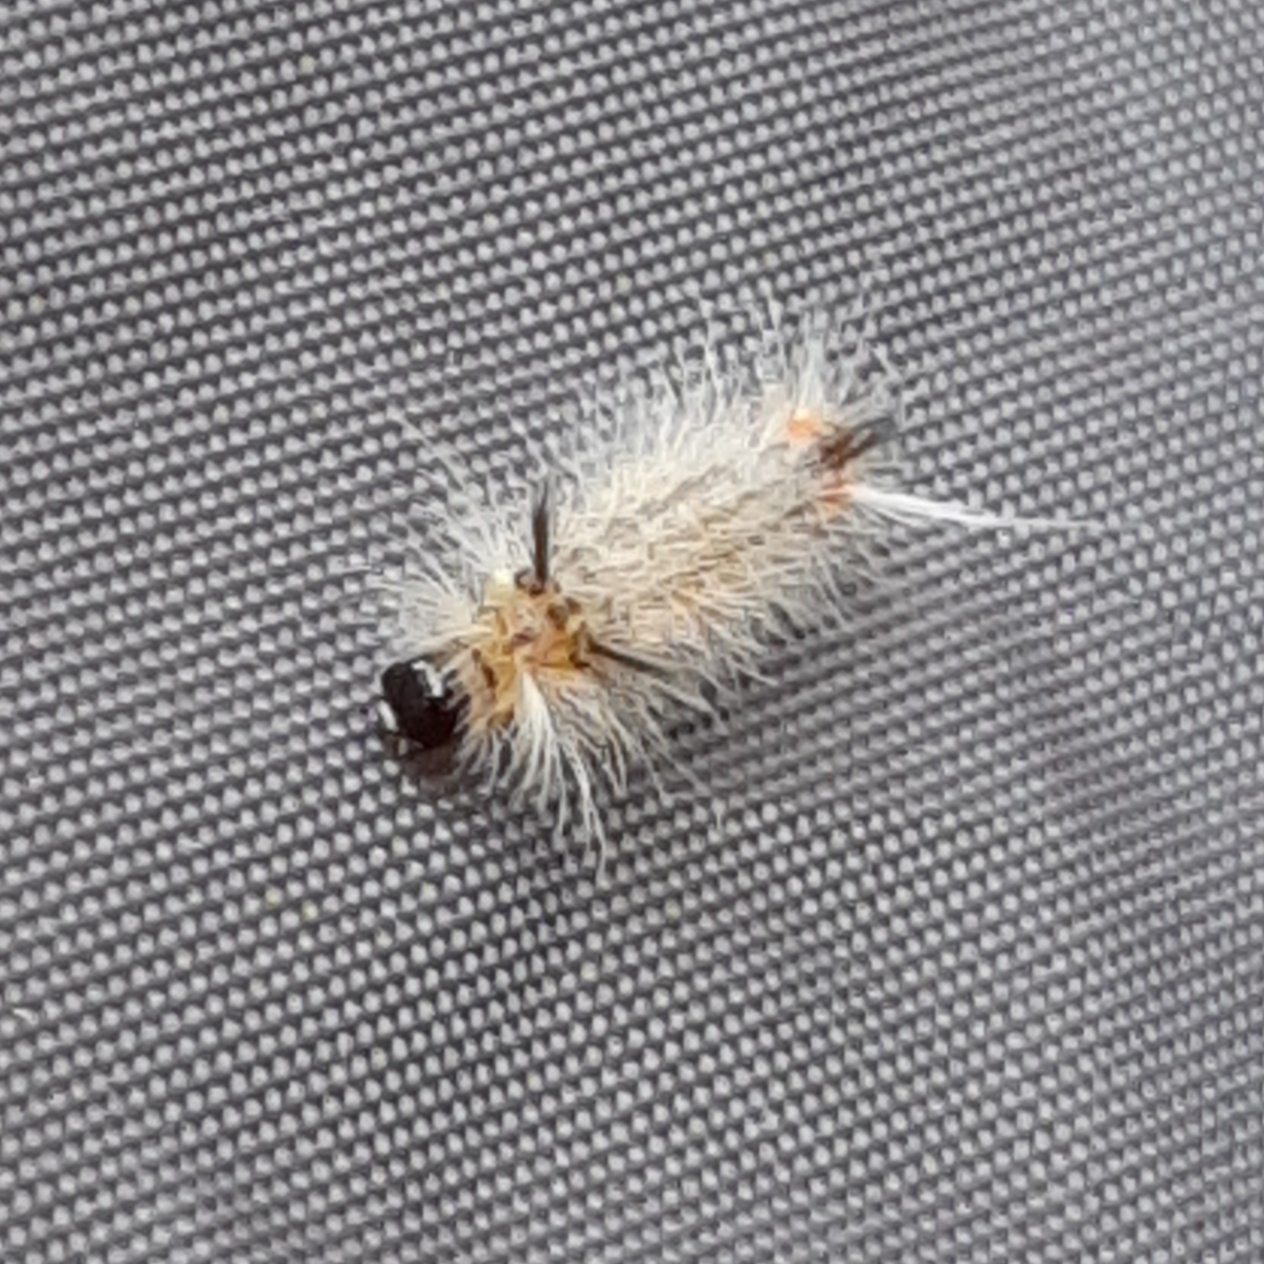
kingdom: Animalia
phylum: Arthropoda
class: Insecta
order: Lepidoptera
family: Erebidae
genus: Halysidota
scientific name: Halysidota tessellaris
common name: Banded tussock moth
